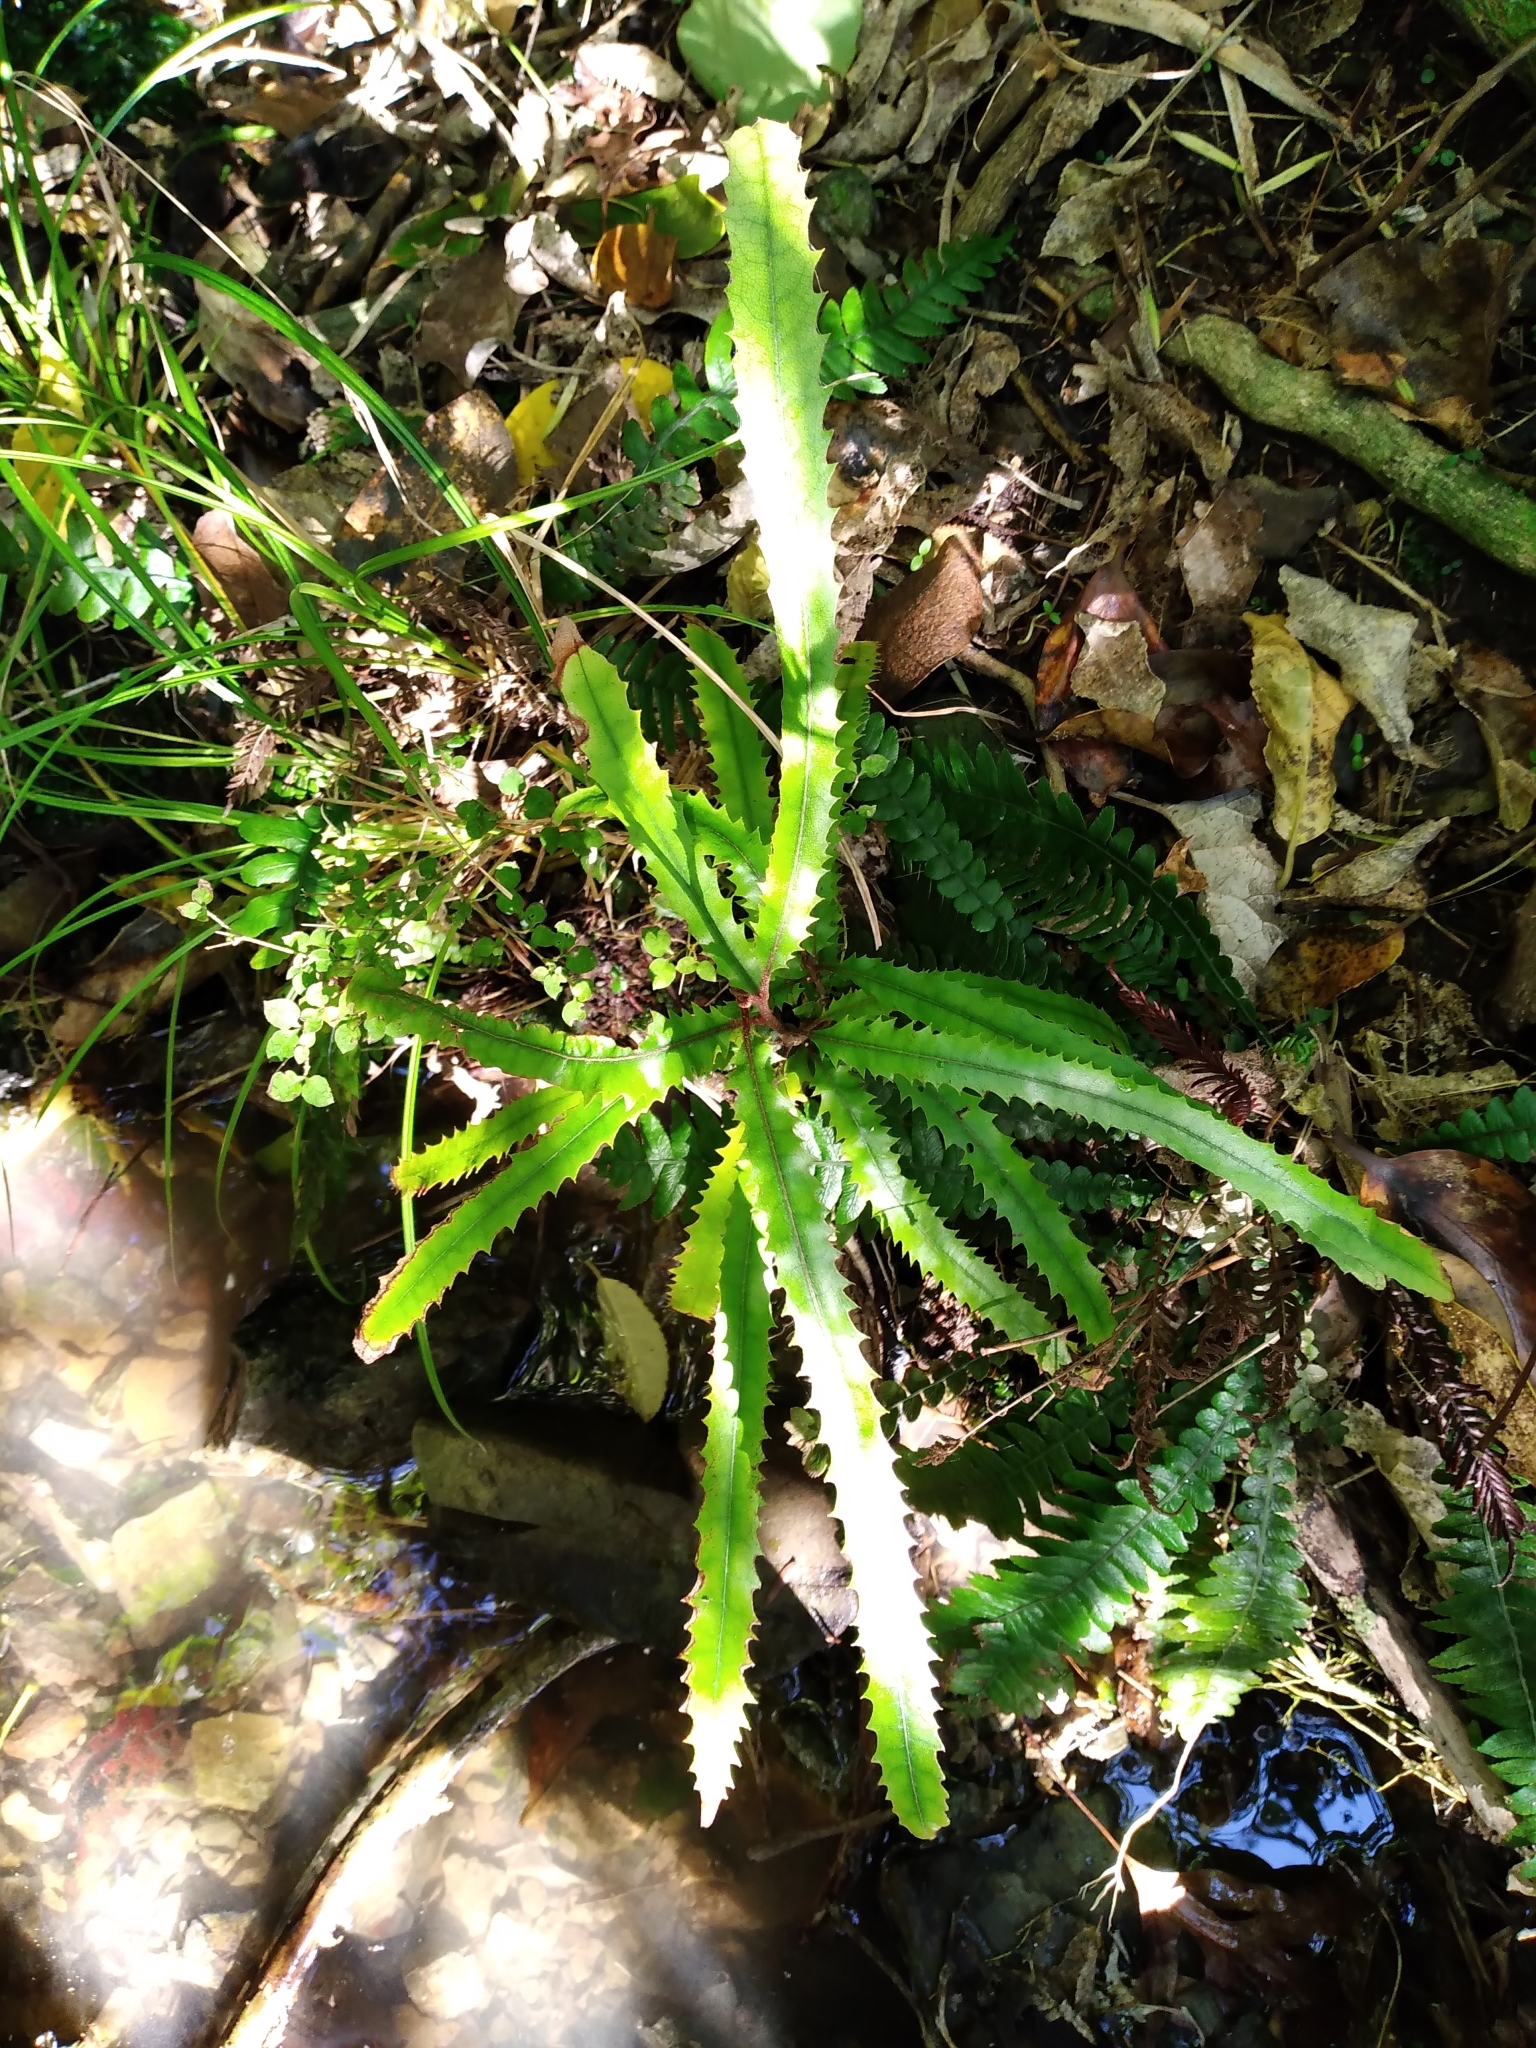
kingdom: Plantae
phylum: Tracheophyta
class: Magnoliopsida
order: Proteales
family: Proteaceae
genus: Knightia
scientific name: Knightia excelsa
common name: New zealand-honeysuckle
